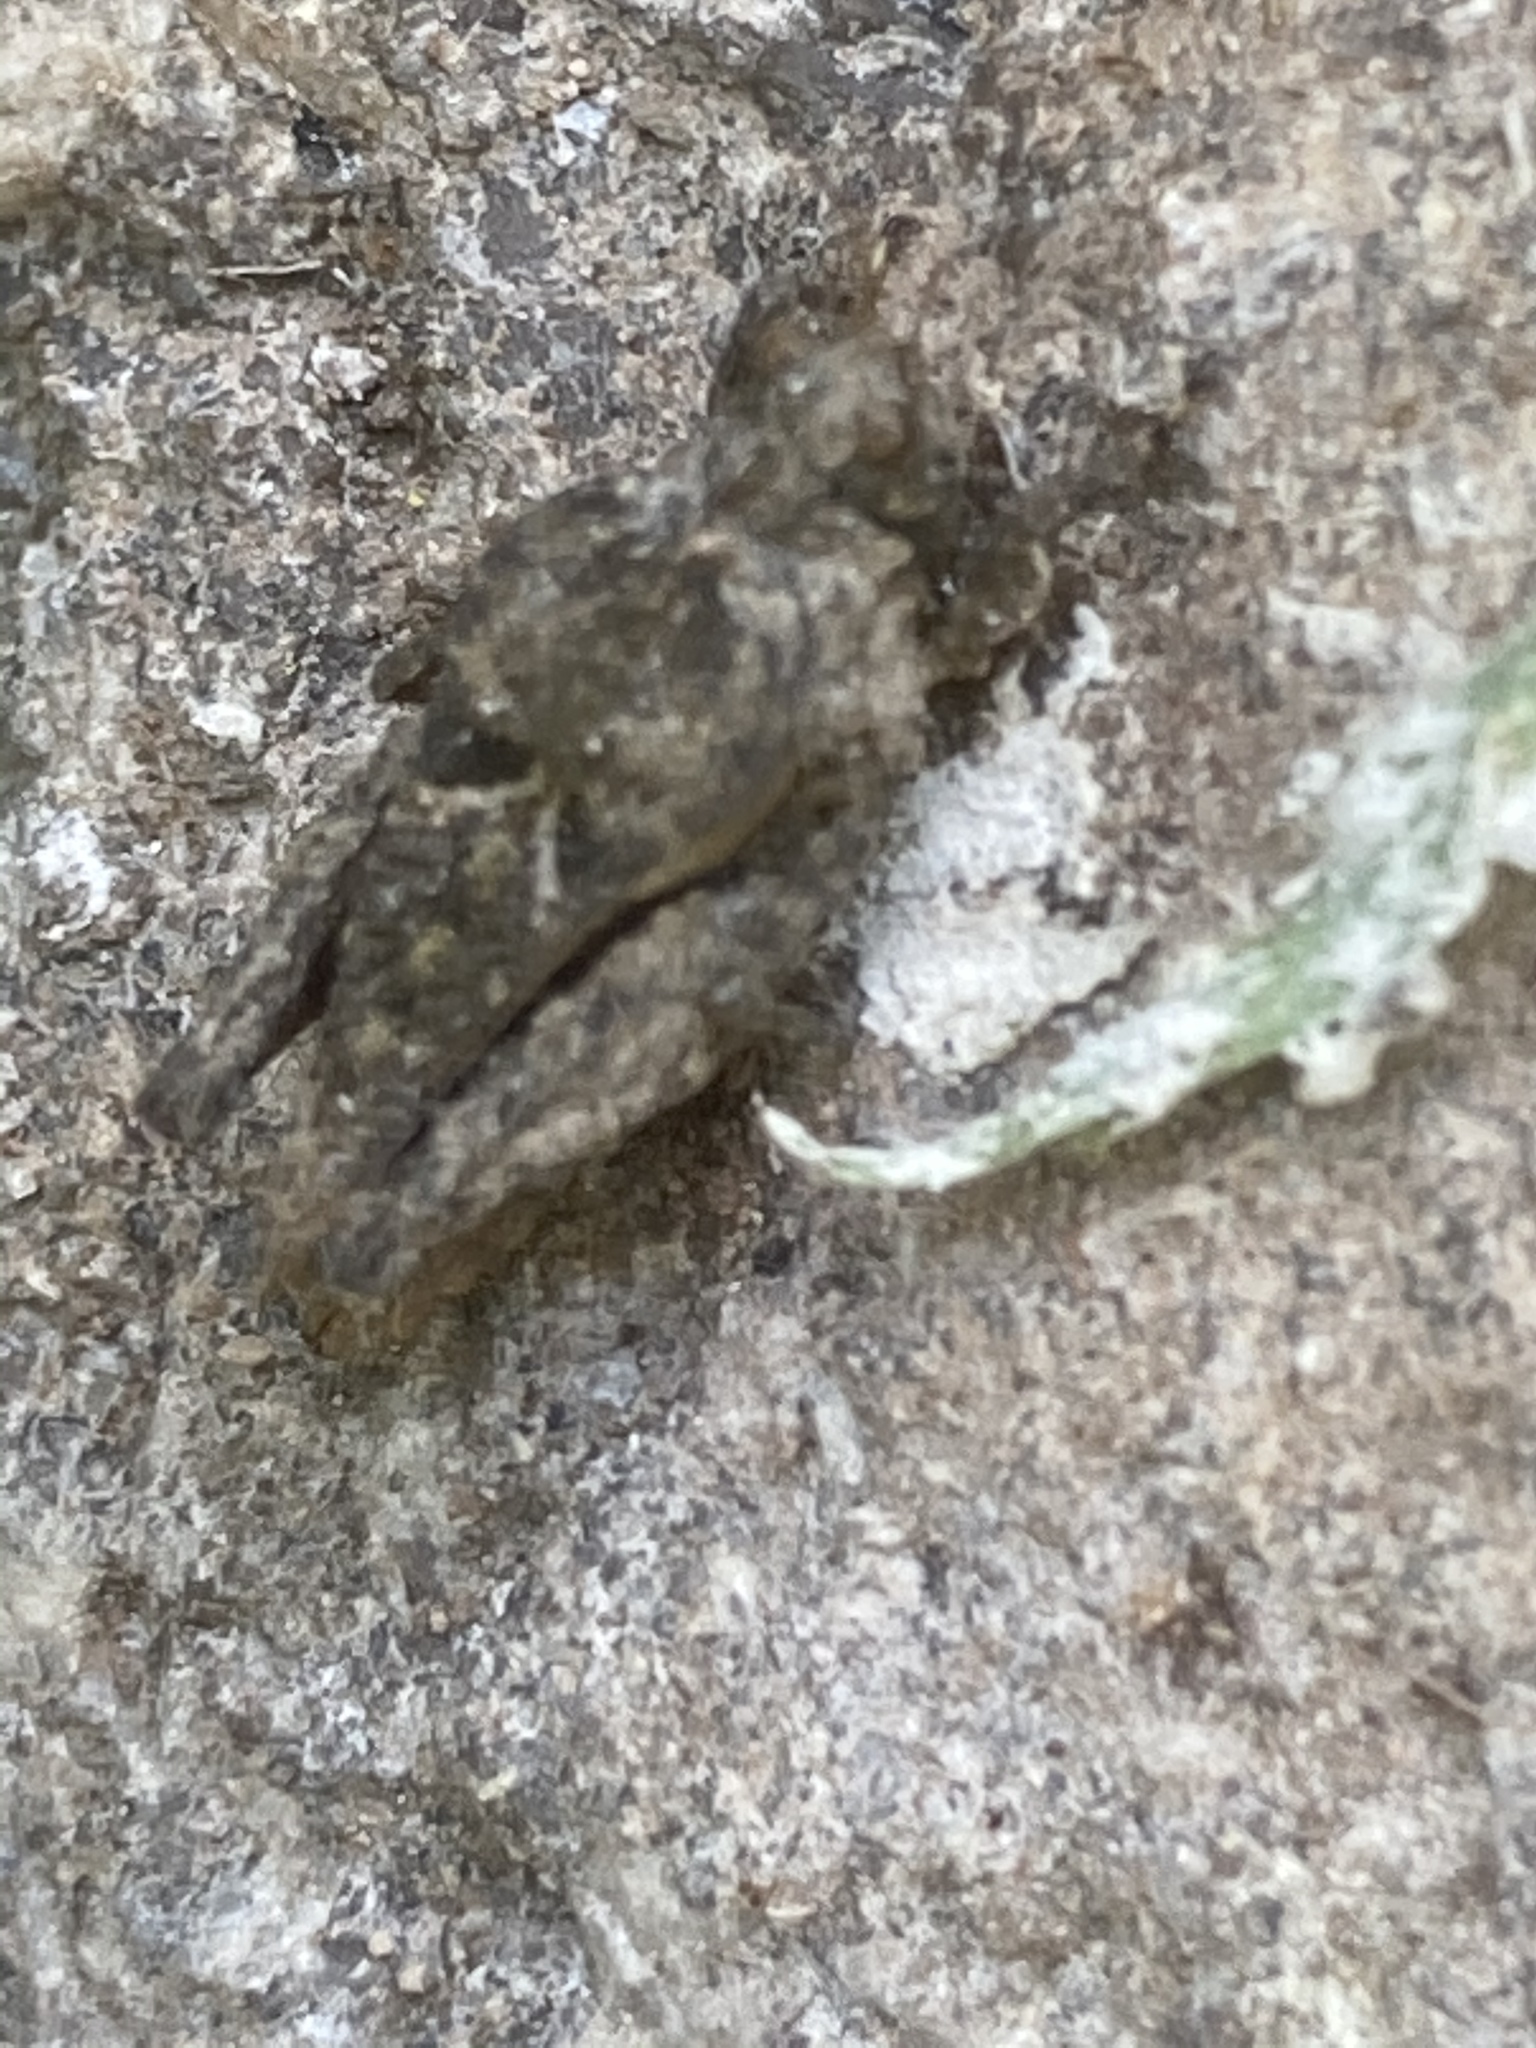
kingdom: Animalia
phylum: Arthropoda
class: Insecta
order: Orthoptera
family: Tetrigidae
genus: Tetrix
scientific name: Tetrix depressa
